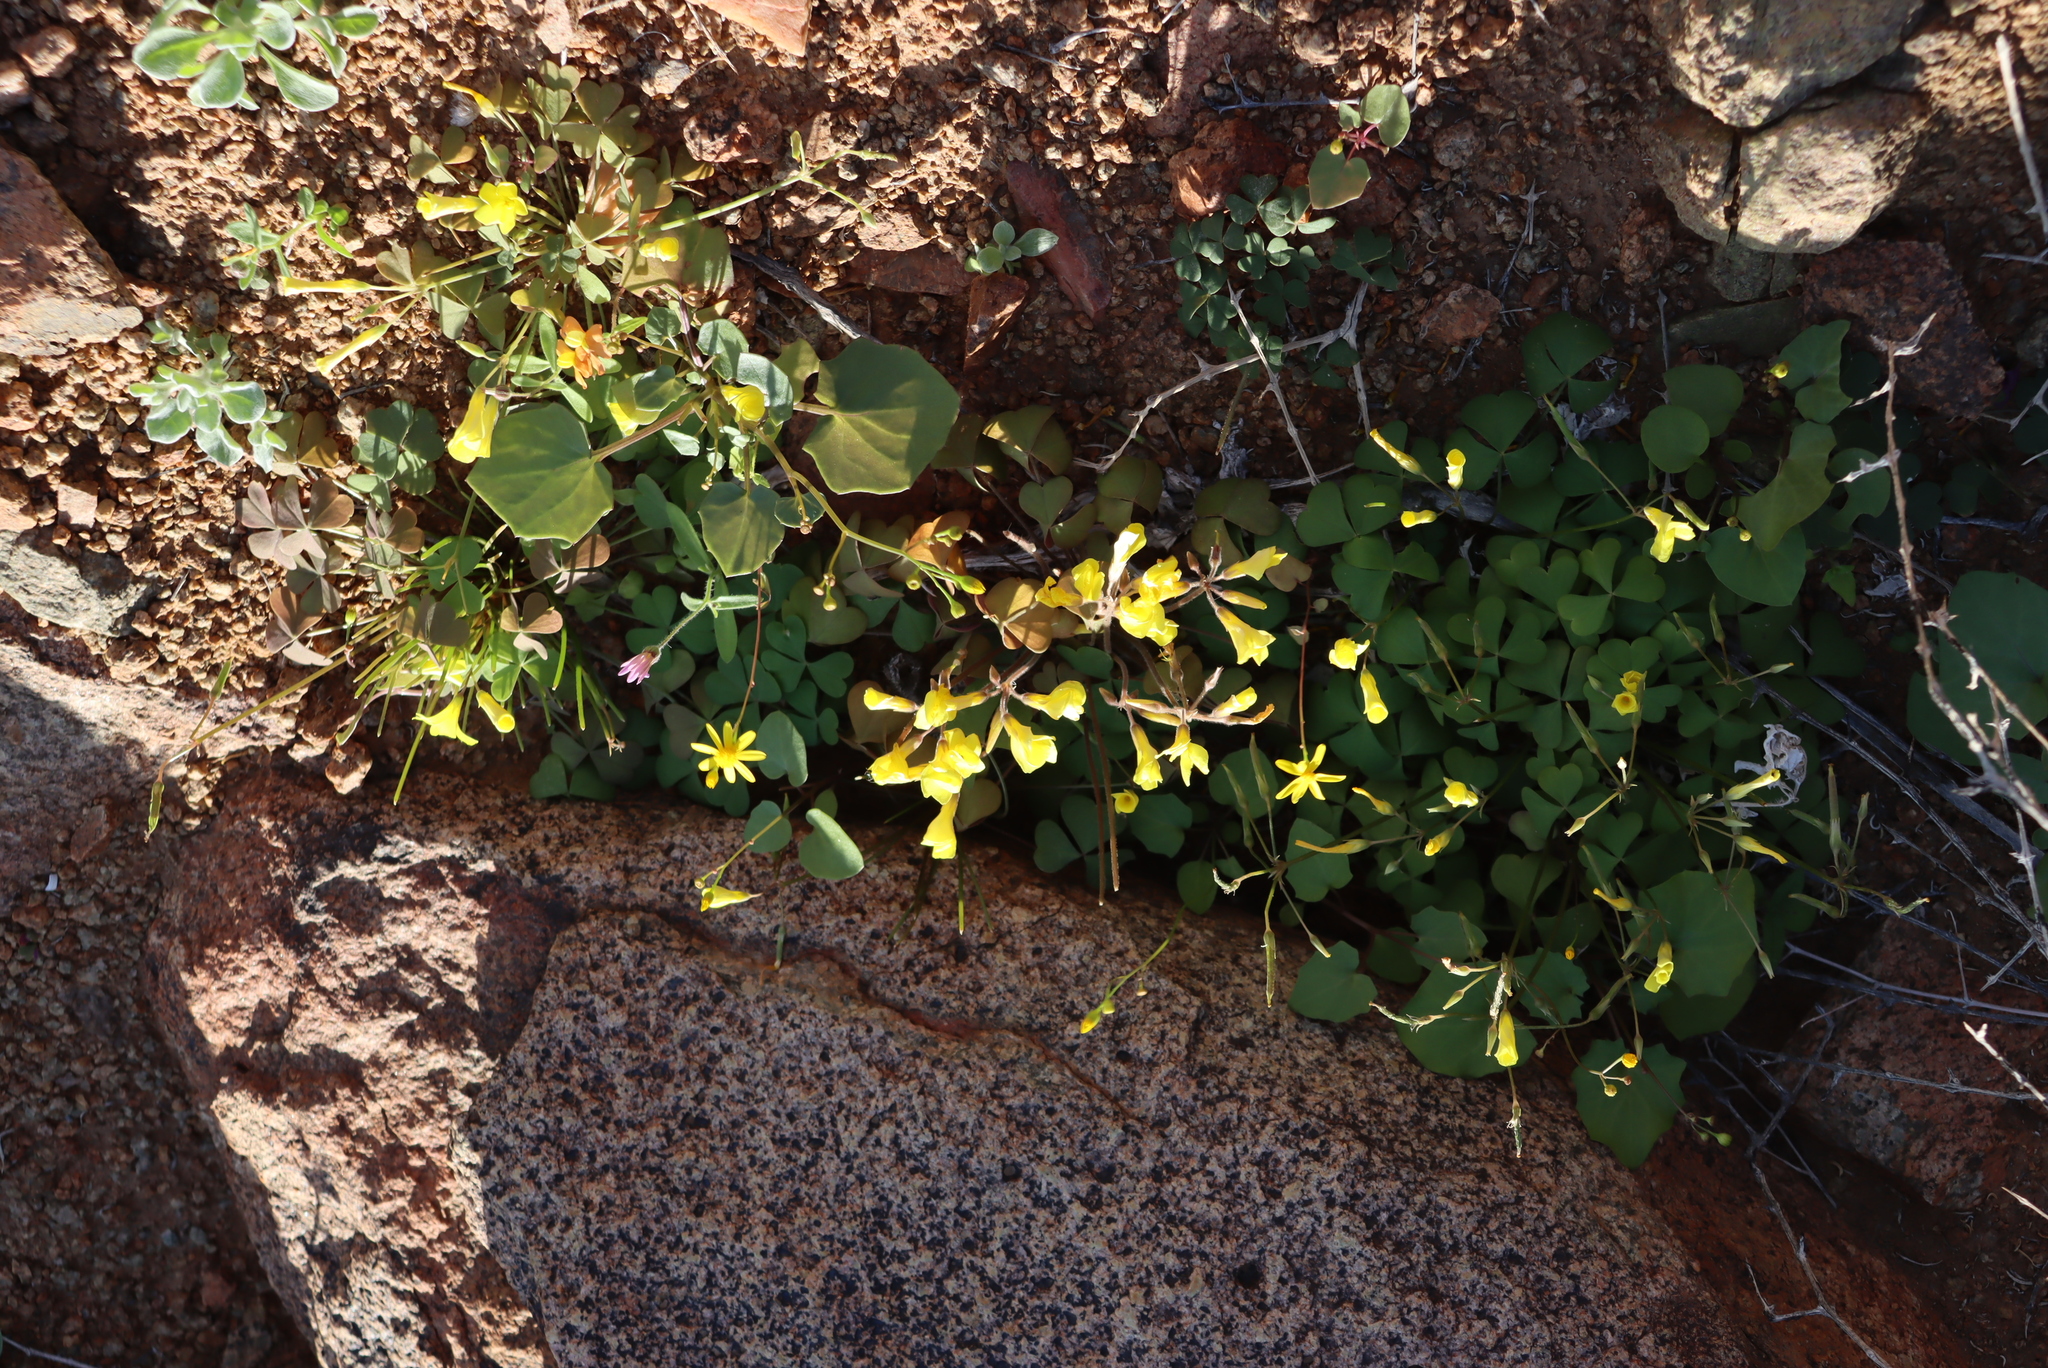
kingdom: Plantae
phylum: Tracheophyta
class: Magnoliopsida
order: Oxalidales
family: Oxalidaceae
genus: Oxalis
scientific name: Oxalis copiosa
